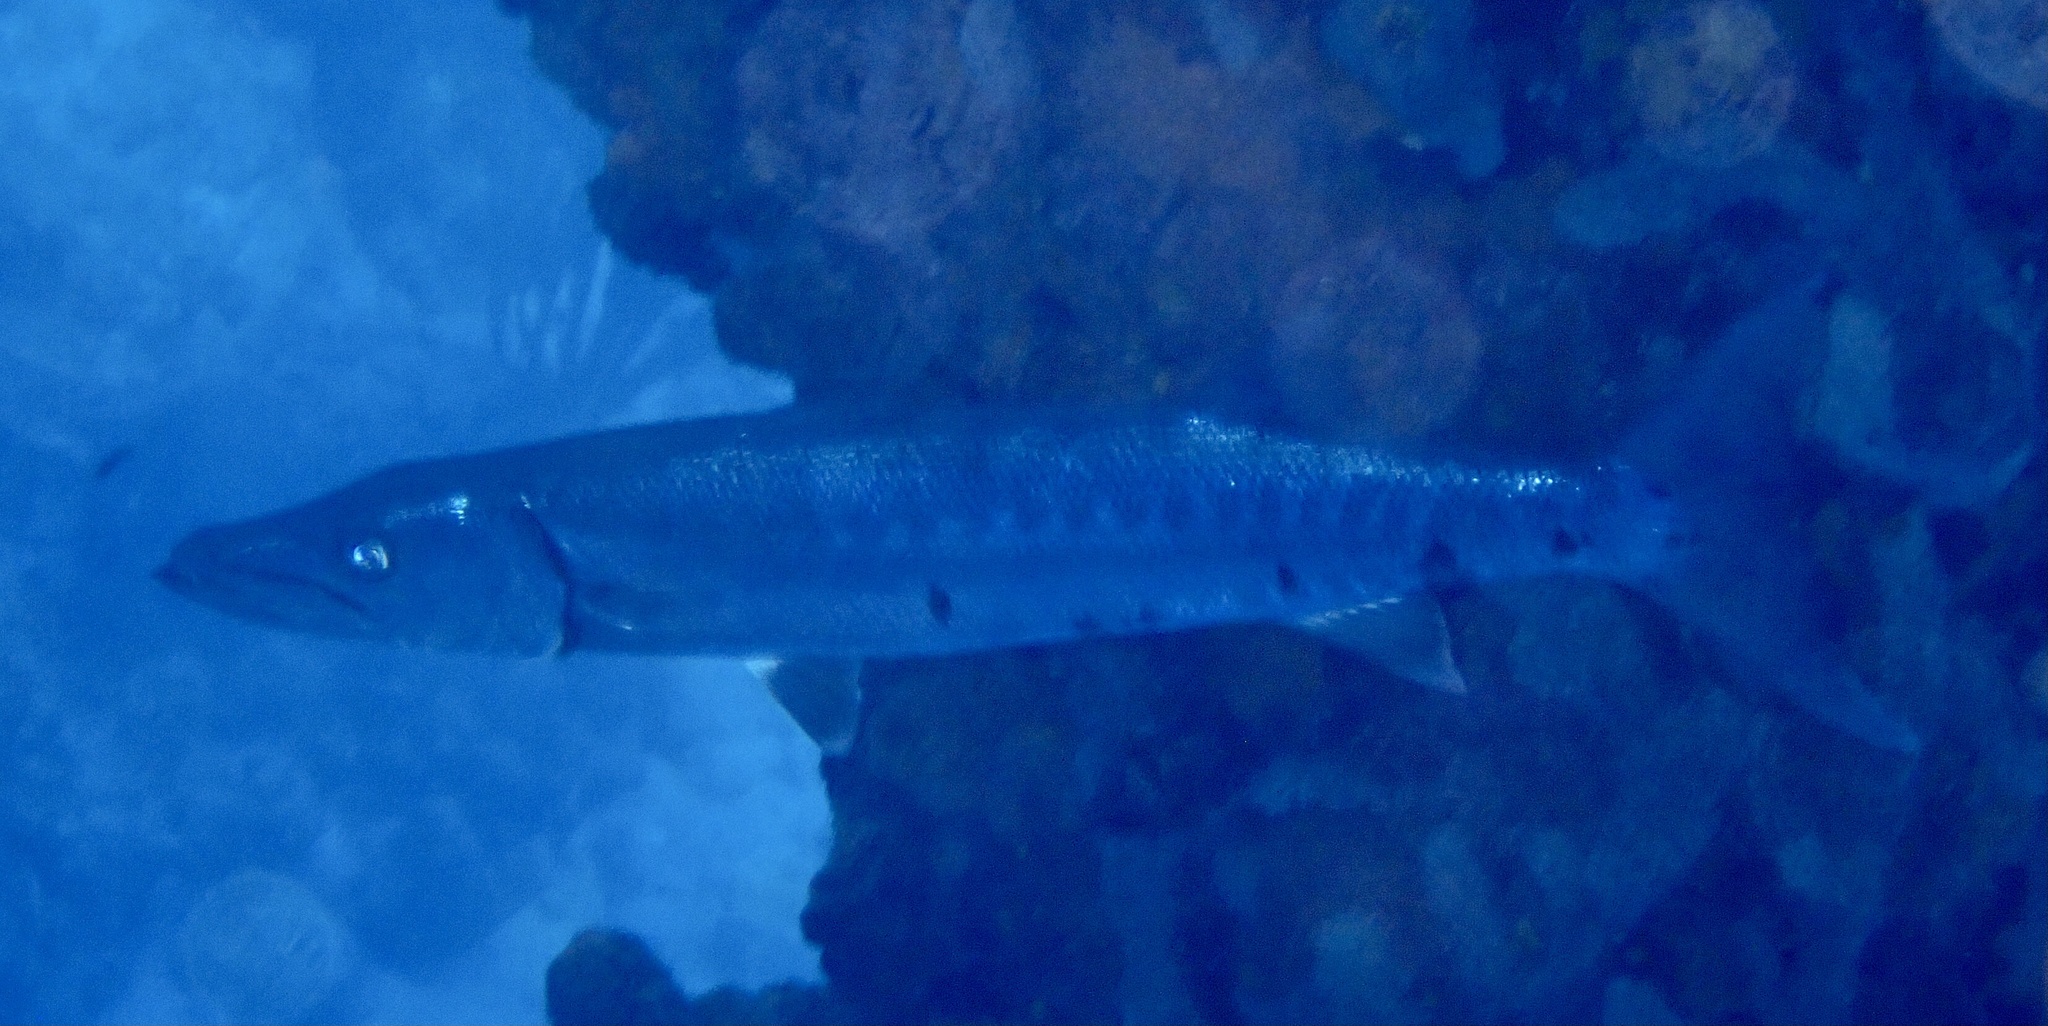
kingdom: Animalia
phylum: Chordata
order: Perciformes
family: Sphyraenidae
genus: Sphyraena
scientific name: Sphyraena barracuda
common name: Great barracuda
